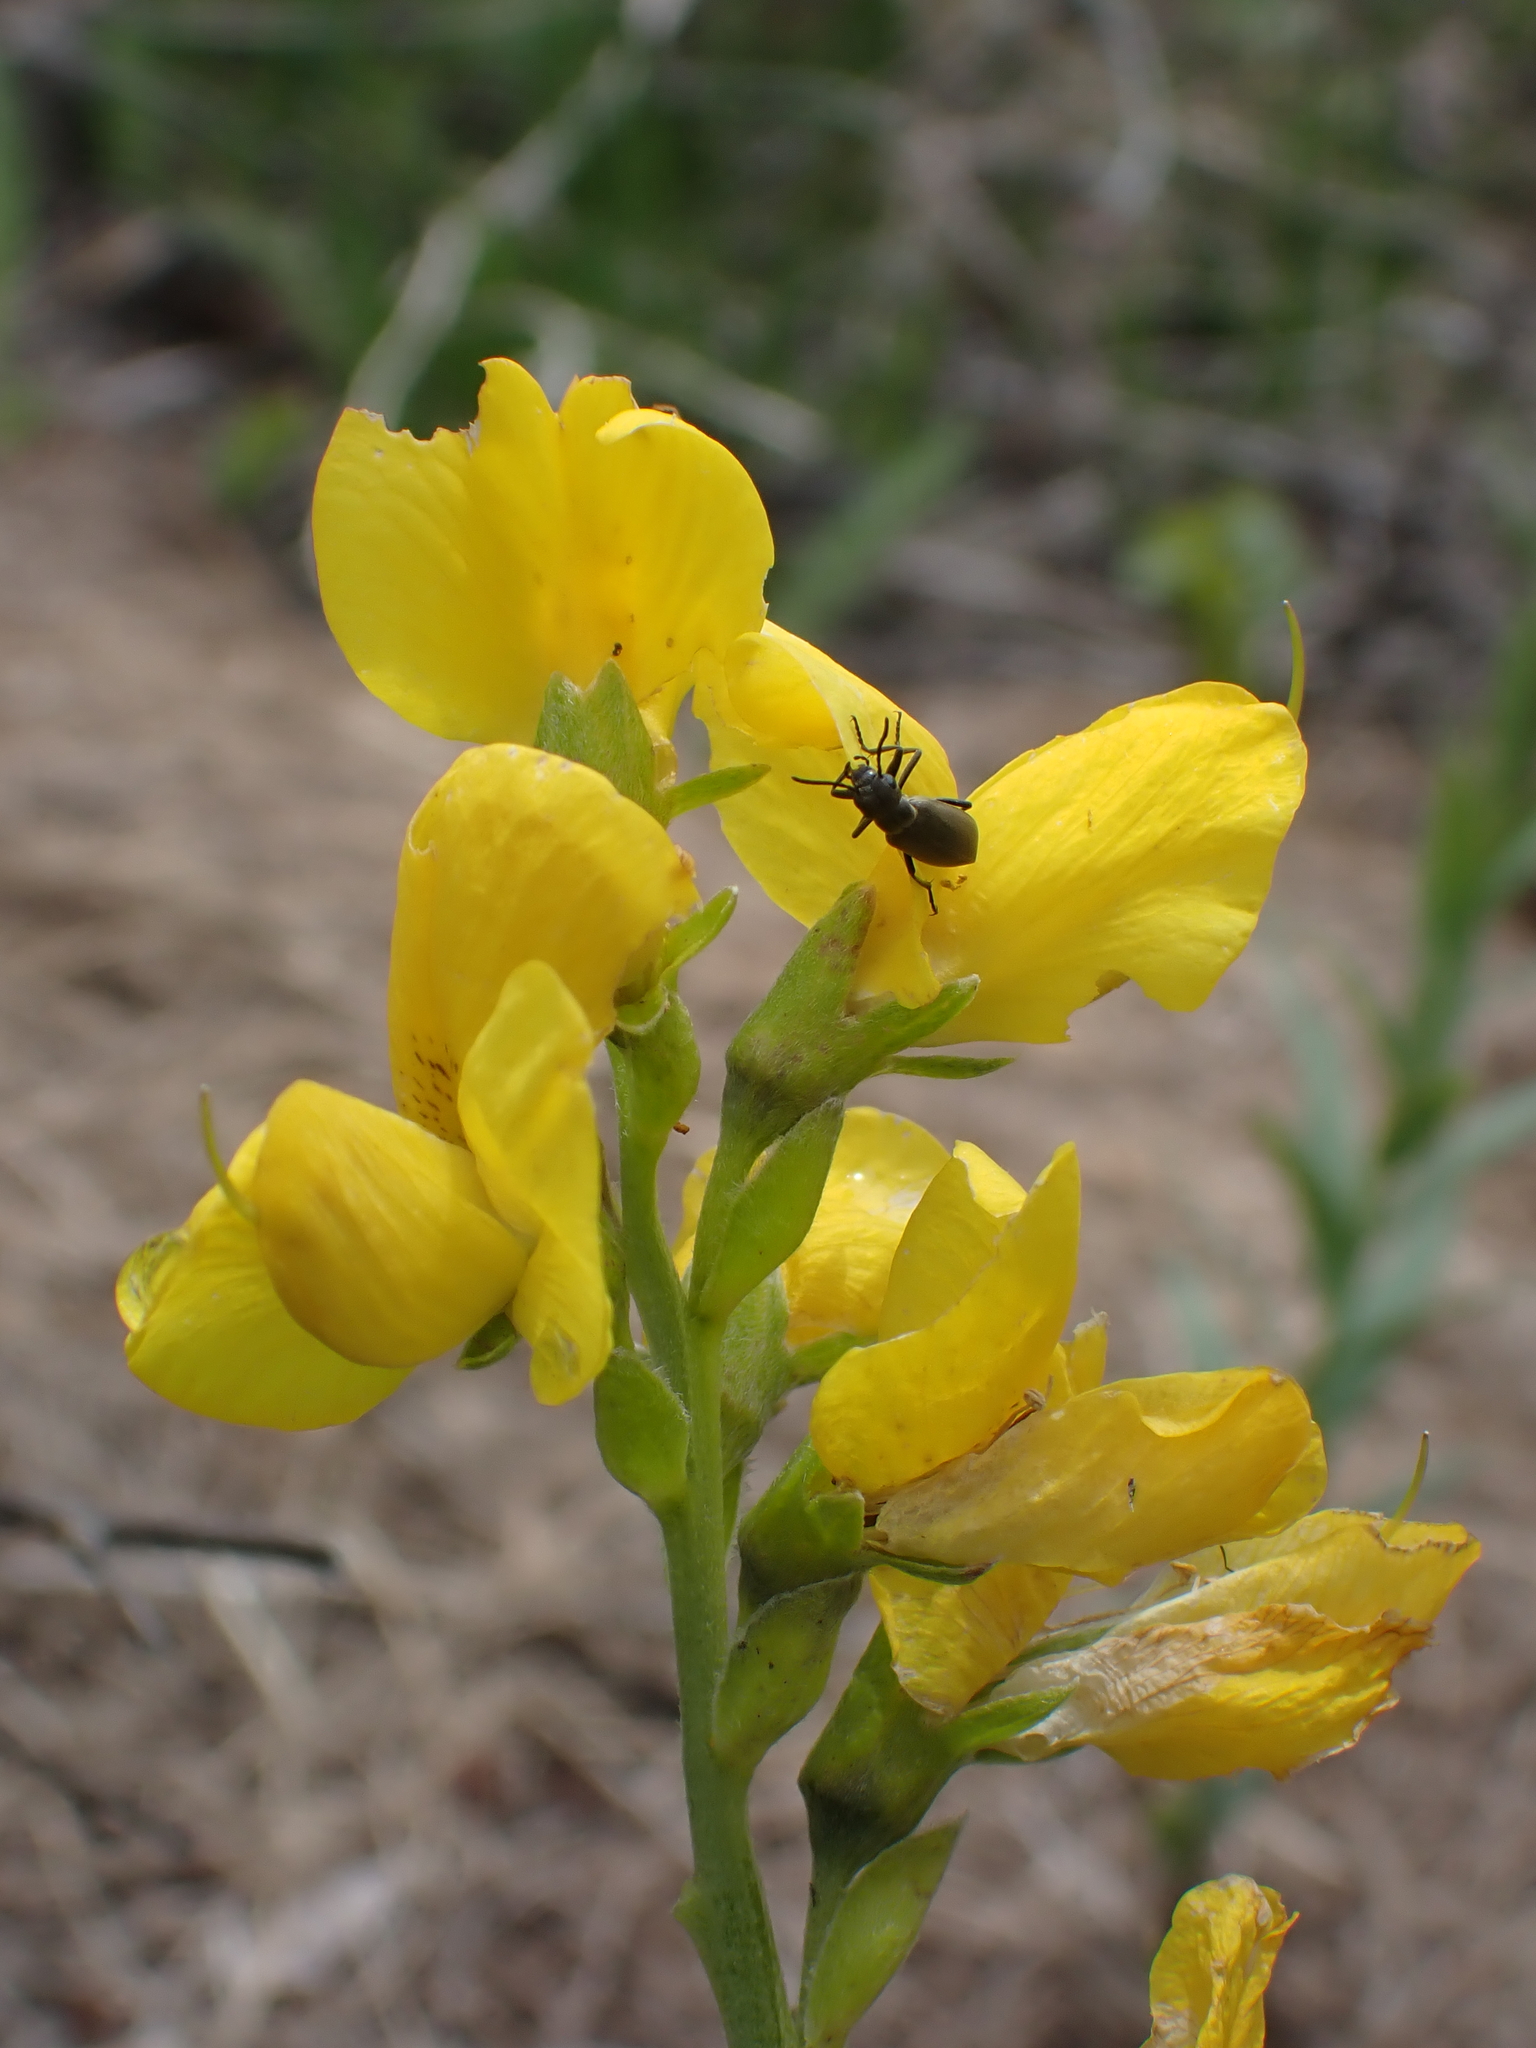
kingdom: Plantae
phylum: Tracheophyta
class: Magnoliopsida
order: Fabales
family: Fabaceae
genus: Thermopsis
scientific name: Thermopsis rhombifolia
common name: Circle-pod-pea
